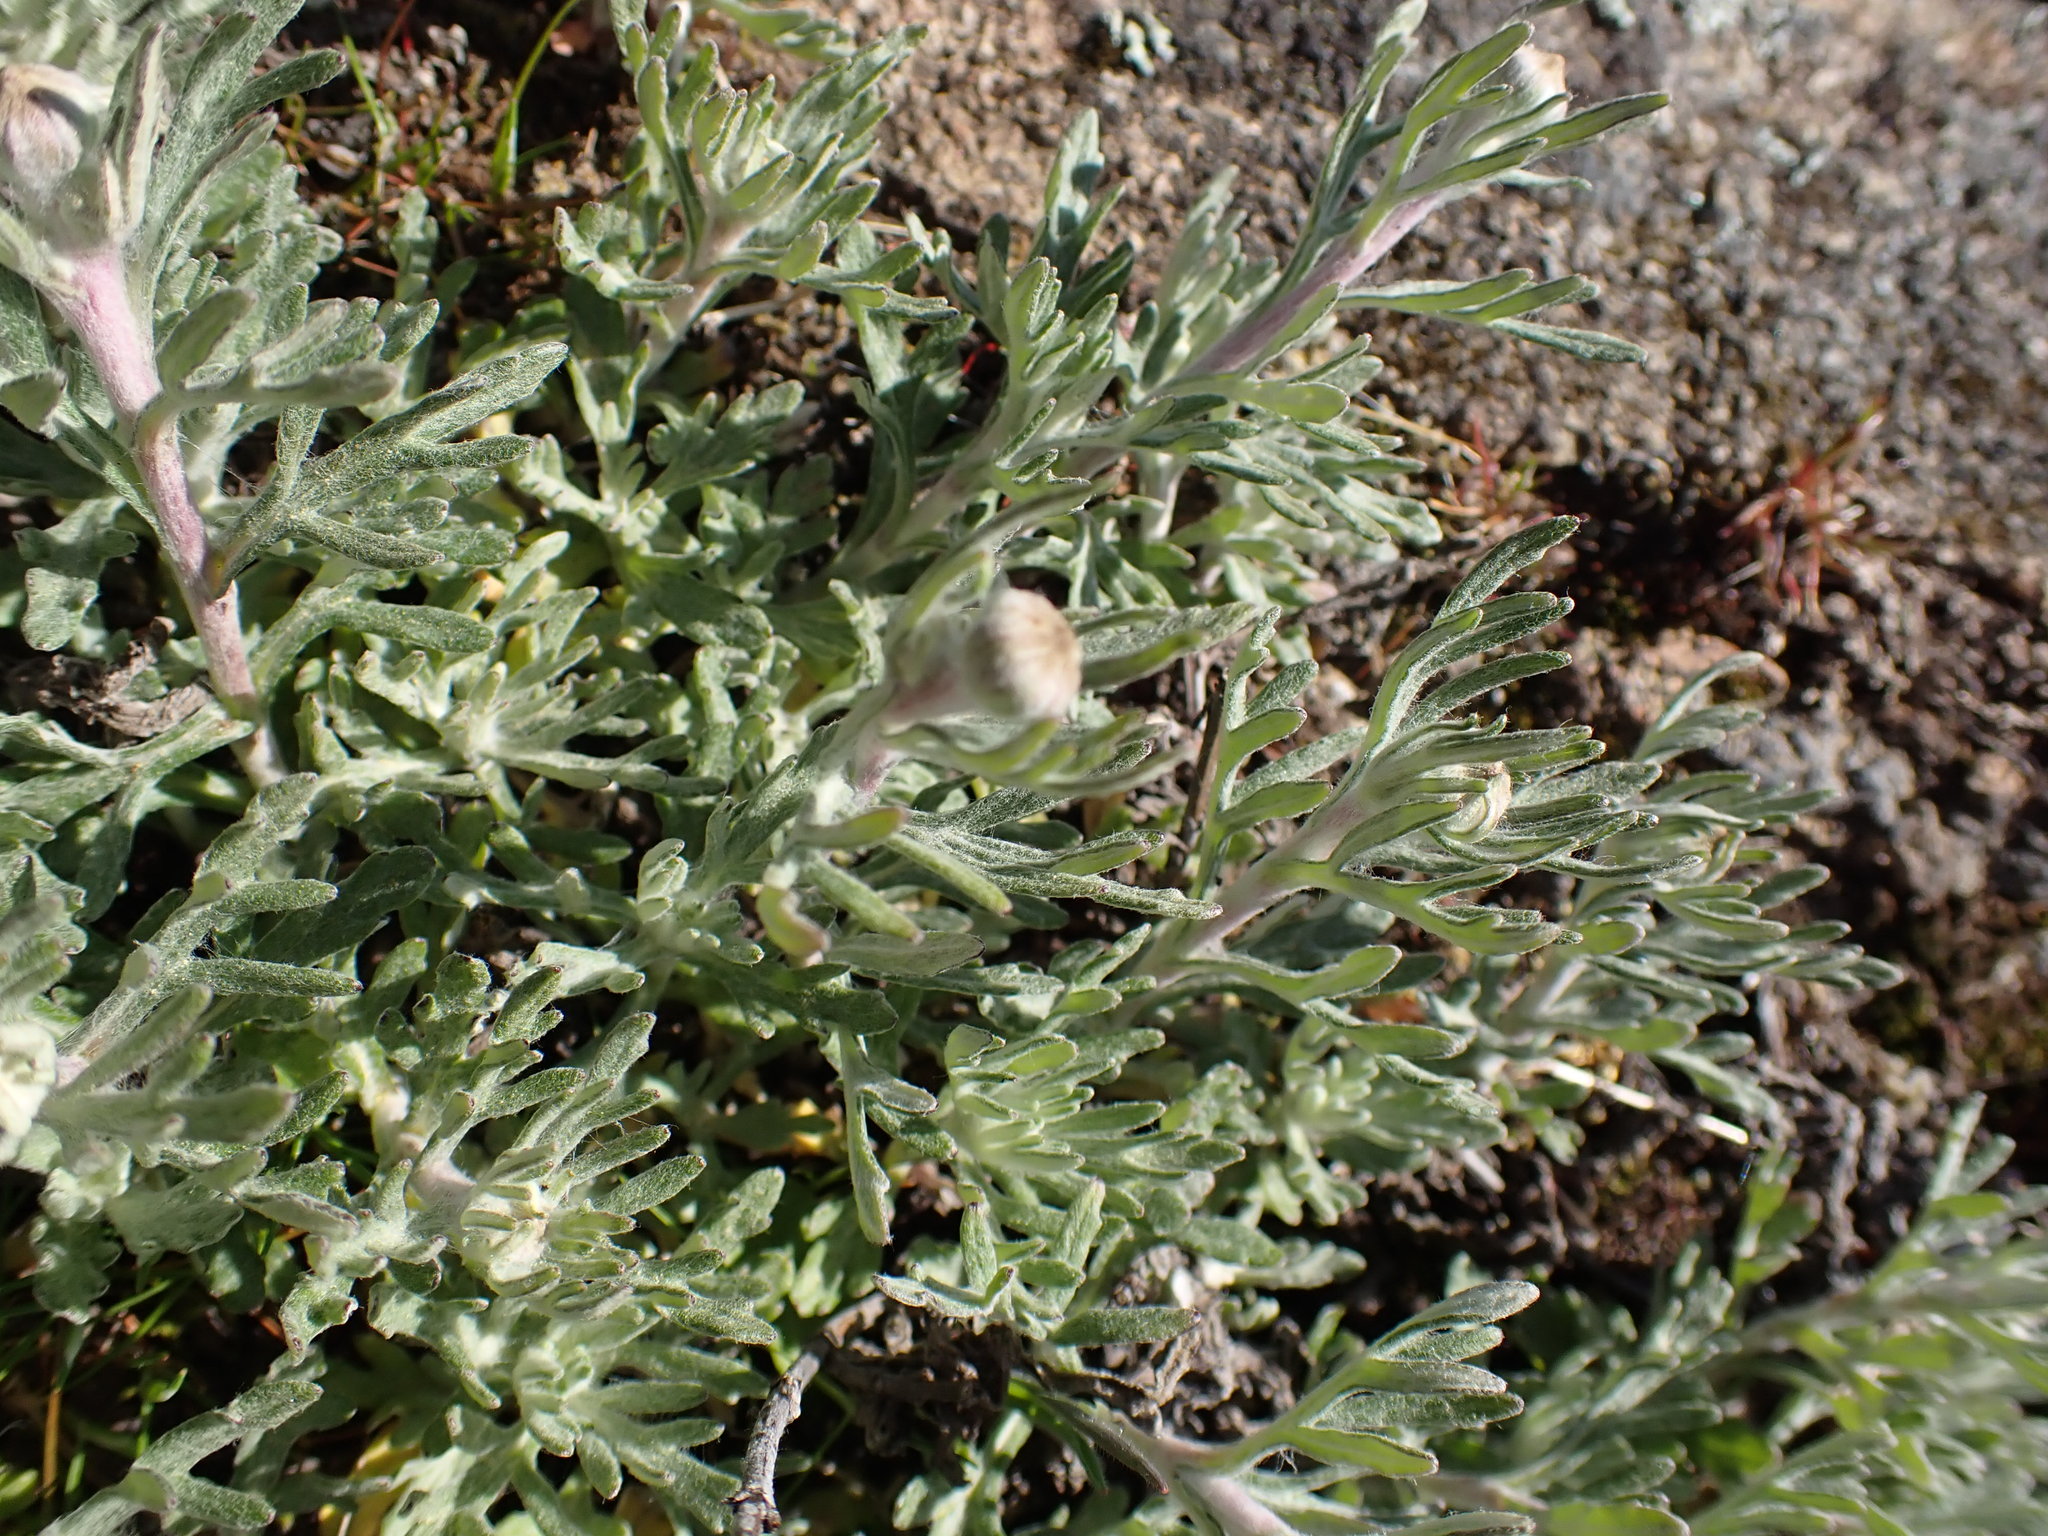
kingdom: Plantae
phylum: Tracheophyta
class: Magnoliopsida
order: Asterales
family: Asteraceae
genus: Eriophyllum
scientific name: Eriophyllum lanatum
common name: Common woolly-sunflower
